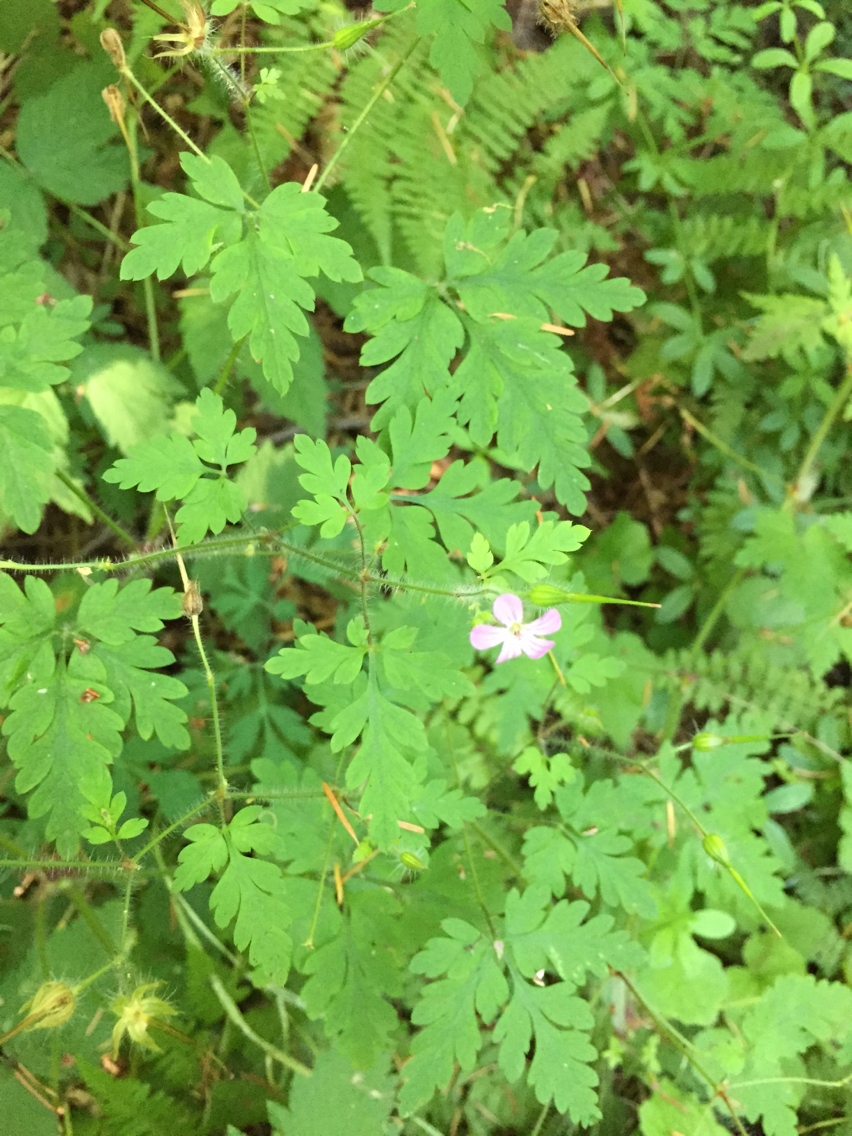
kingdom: Plantae
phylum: Tracheophyta
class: Magnoliopsida
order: Geraniales
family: Geraniaceae
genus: Geranium
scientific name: Geranium robertianum
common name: Herb-robert
